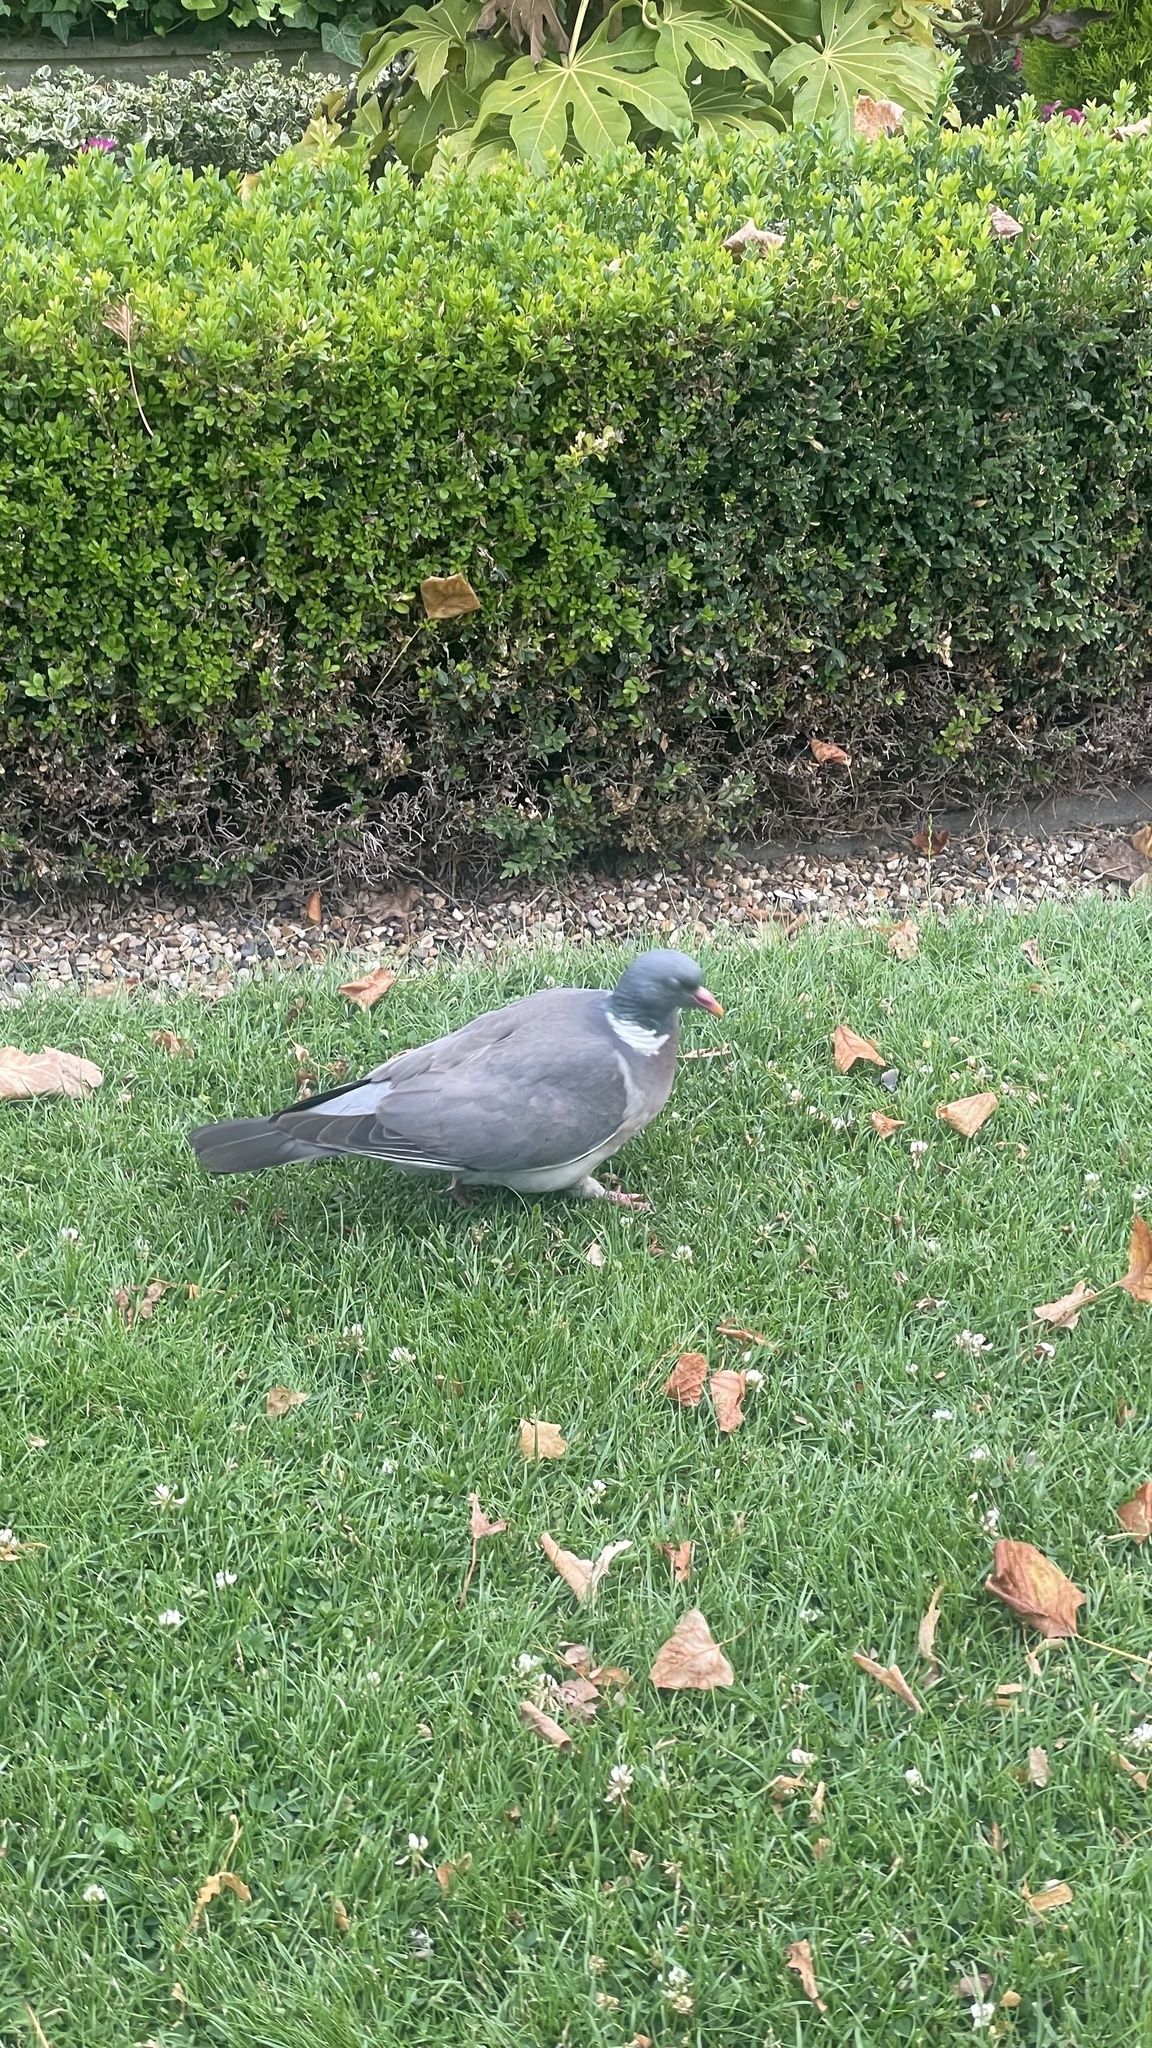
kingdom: Animalia
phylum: Chordata
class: Aves
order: Columbiformes
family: Columbidae
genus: Columba
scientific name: Columba palumbus
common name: Common wood pigeon
